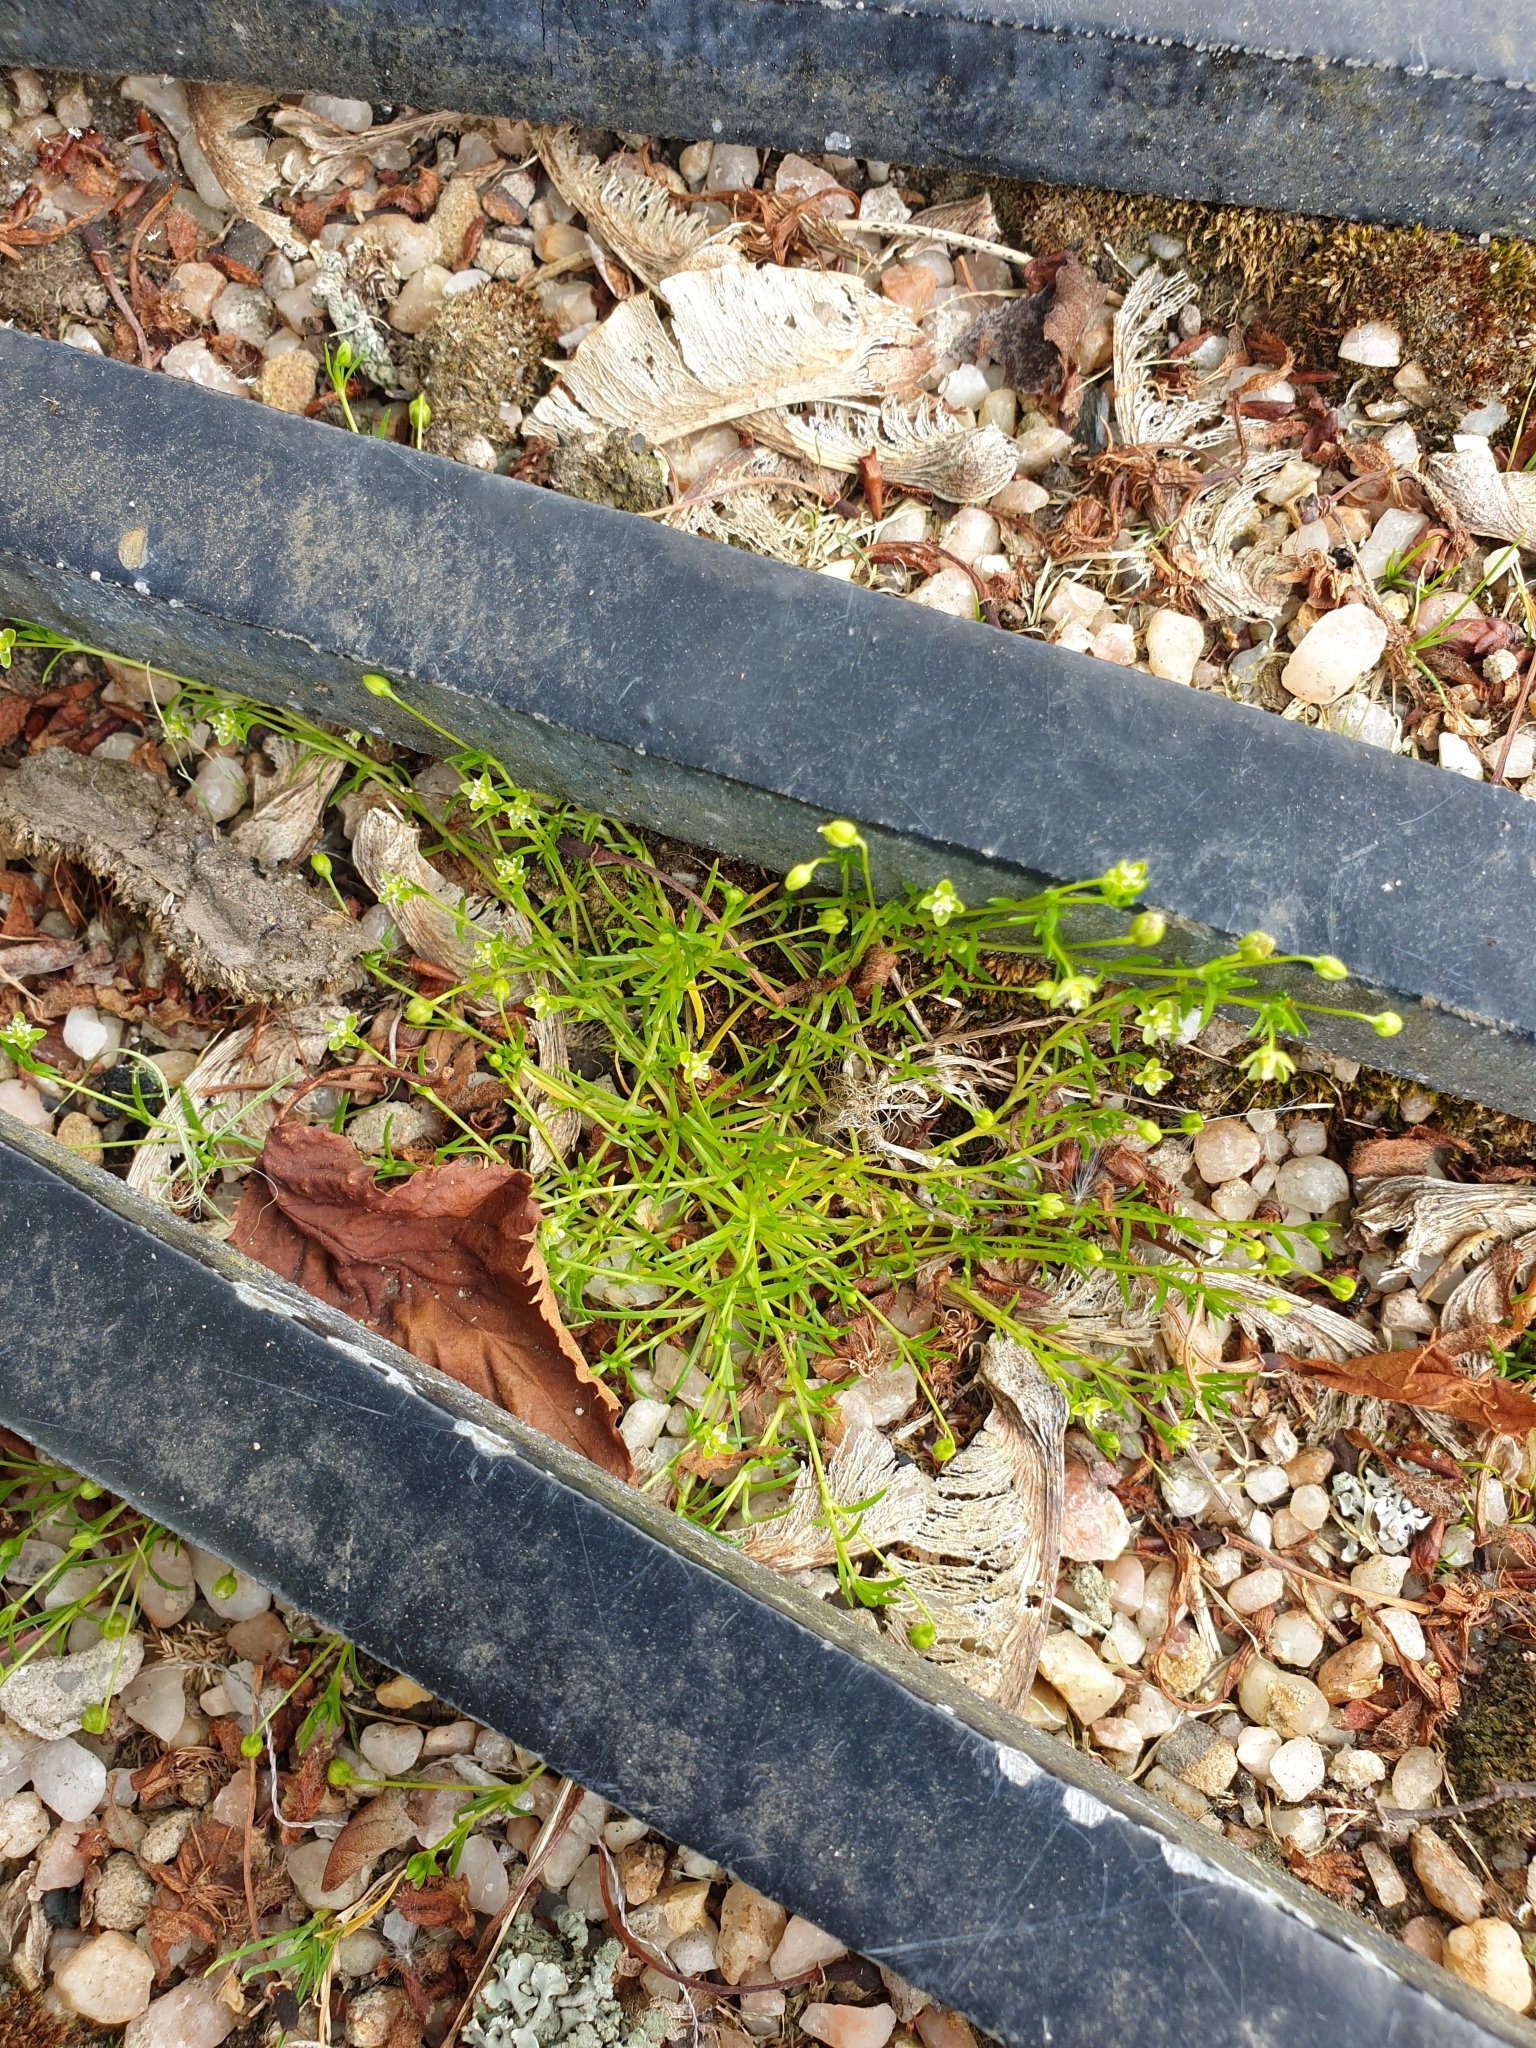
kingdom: Plantae
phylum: Tracheophyta
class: Magnoliopsida
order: Caryophyllales
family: Caryophyllaceae
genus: Sagina
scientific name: Sagina procumbens
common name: Procumbent pearlwort
